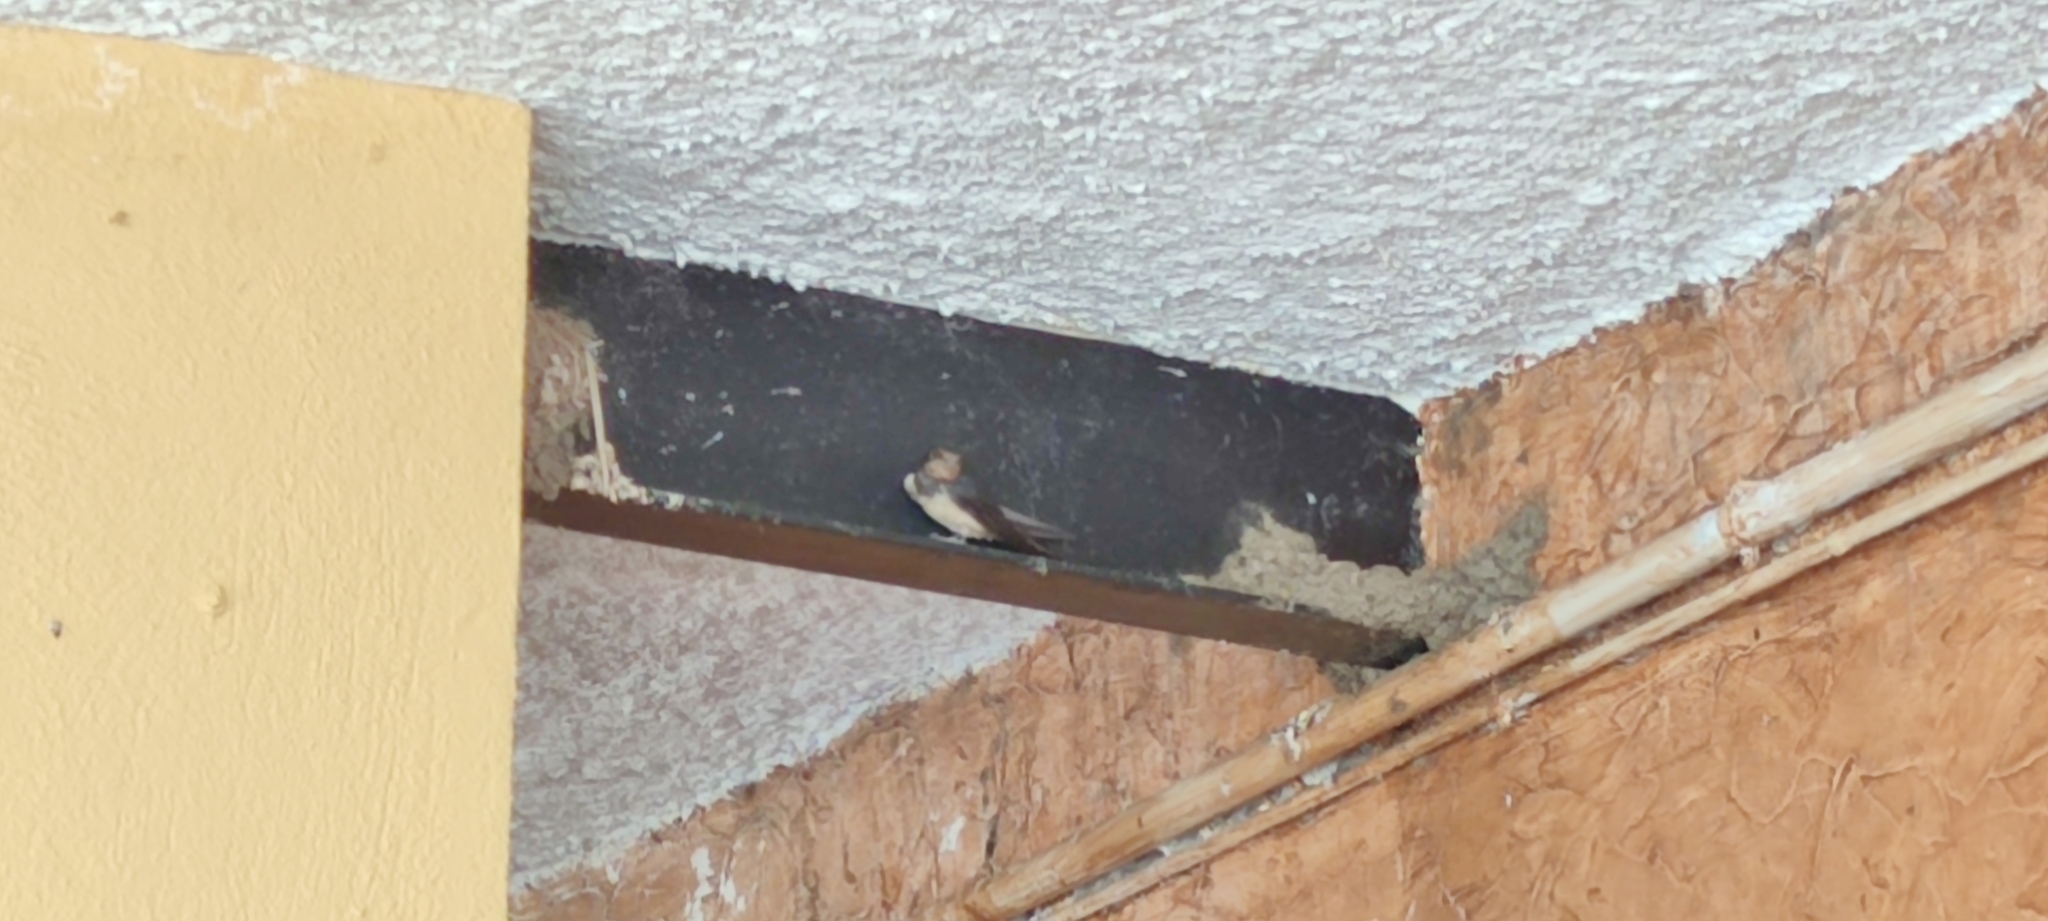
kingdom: Animalia
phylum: Chordata
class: Aves
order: Passeriformes
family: Hirundinidae
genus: Hirundo
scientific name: Hirundo rustica
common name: Barn swallow
